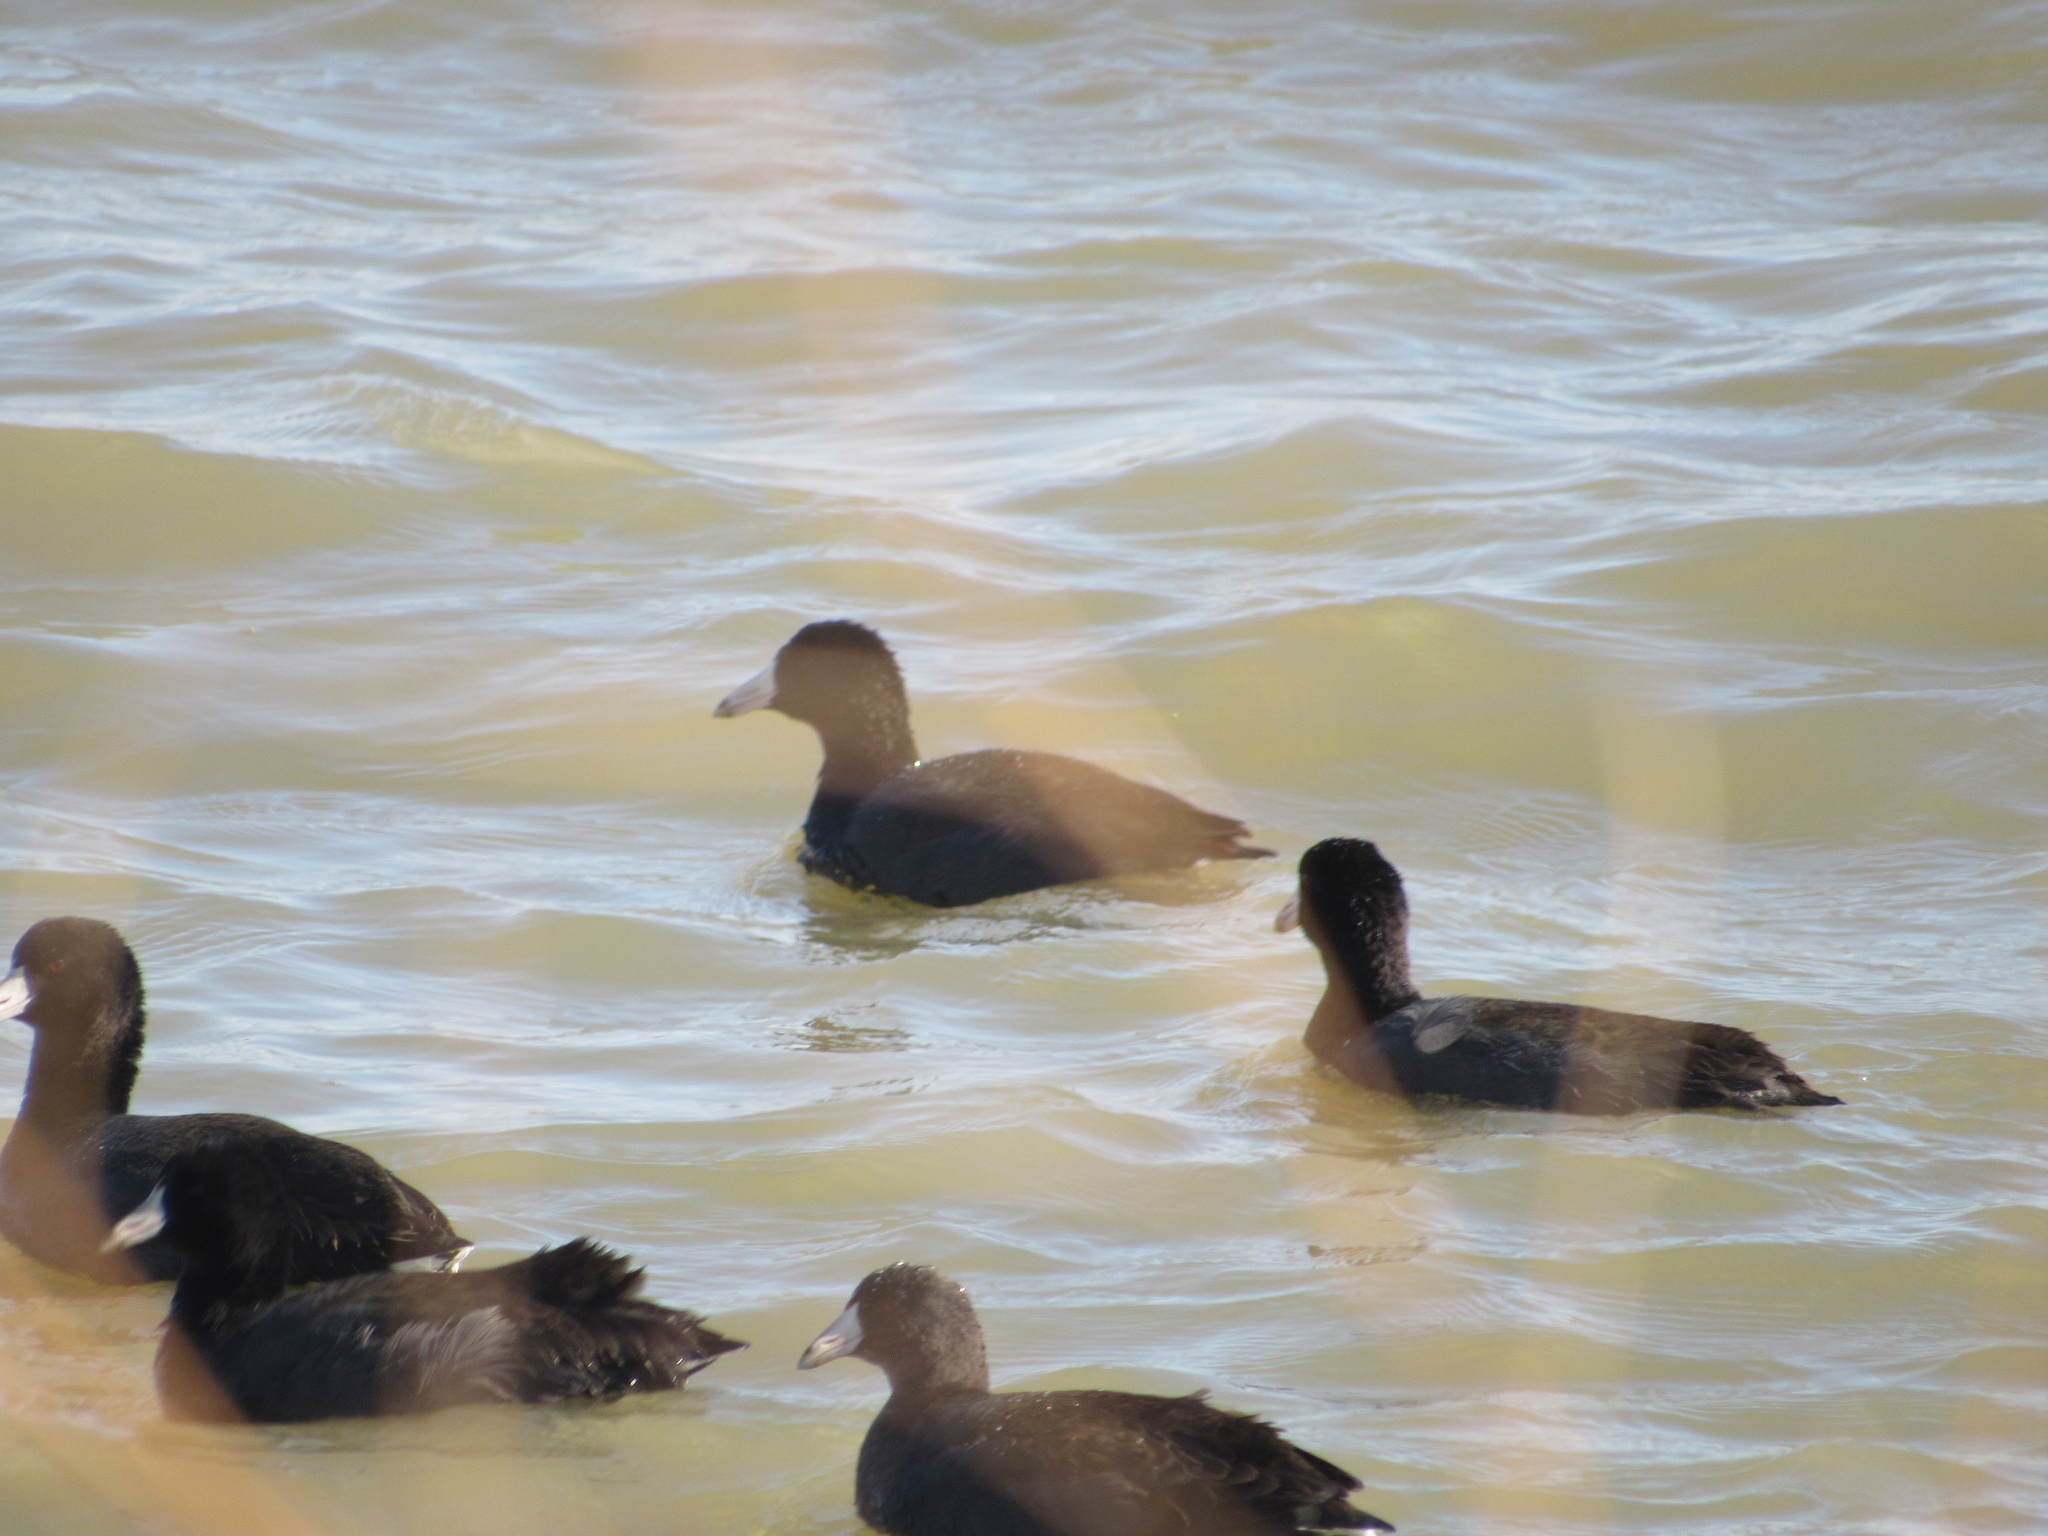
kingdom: Animalia
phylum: Chordata
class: Aves
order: Gruiformes
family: Rallidae
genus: Fulica
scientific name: Fulica americana
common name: American coot
